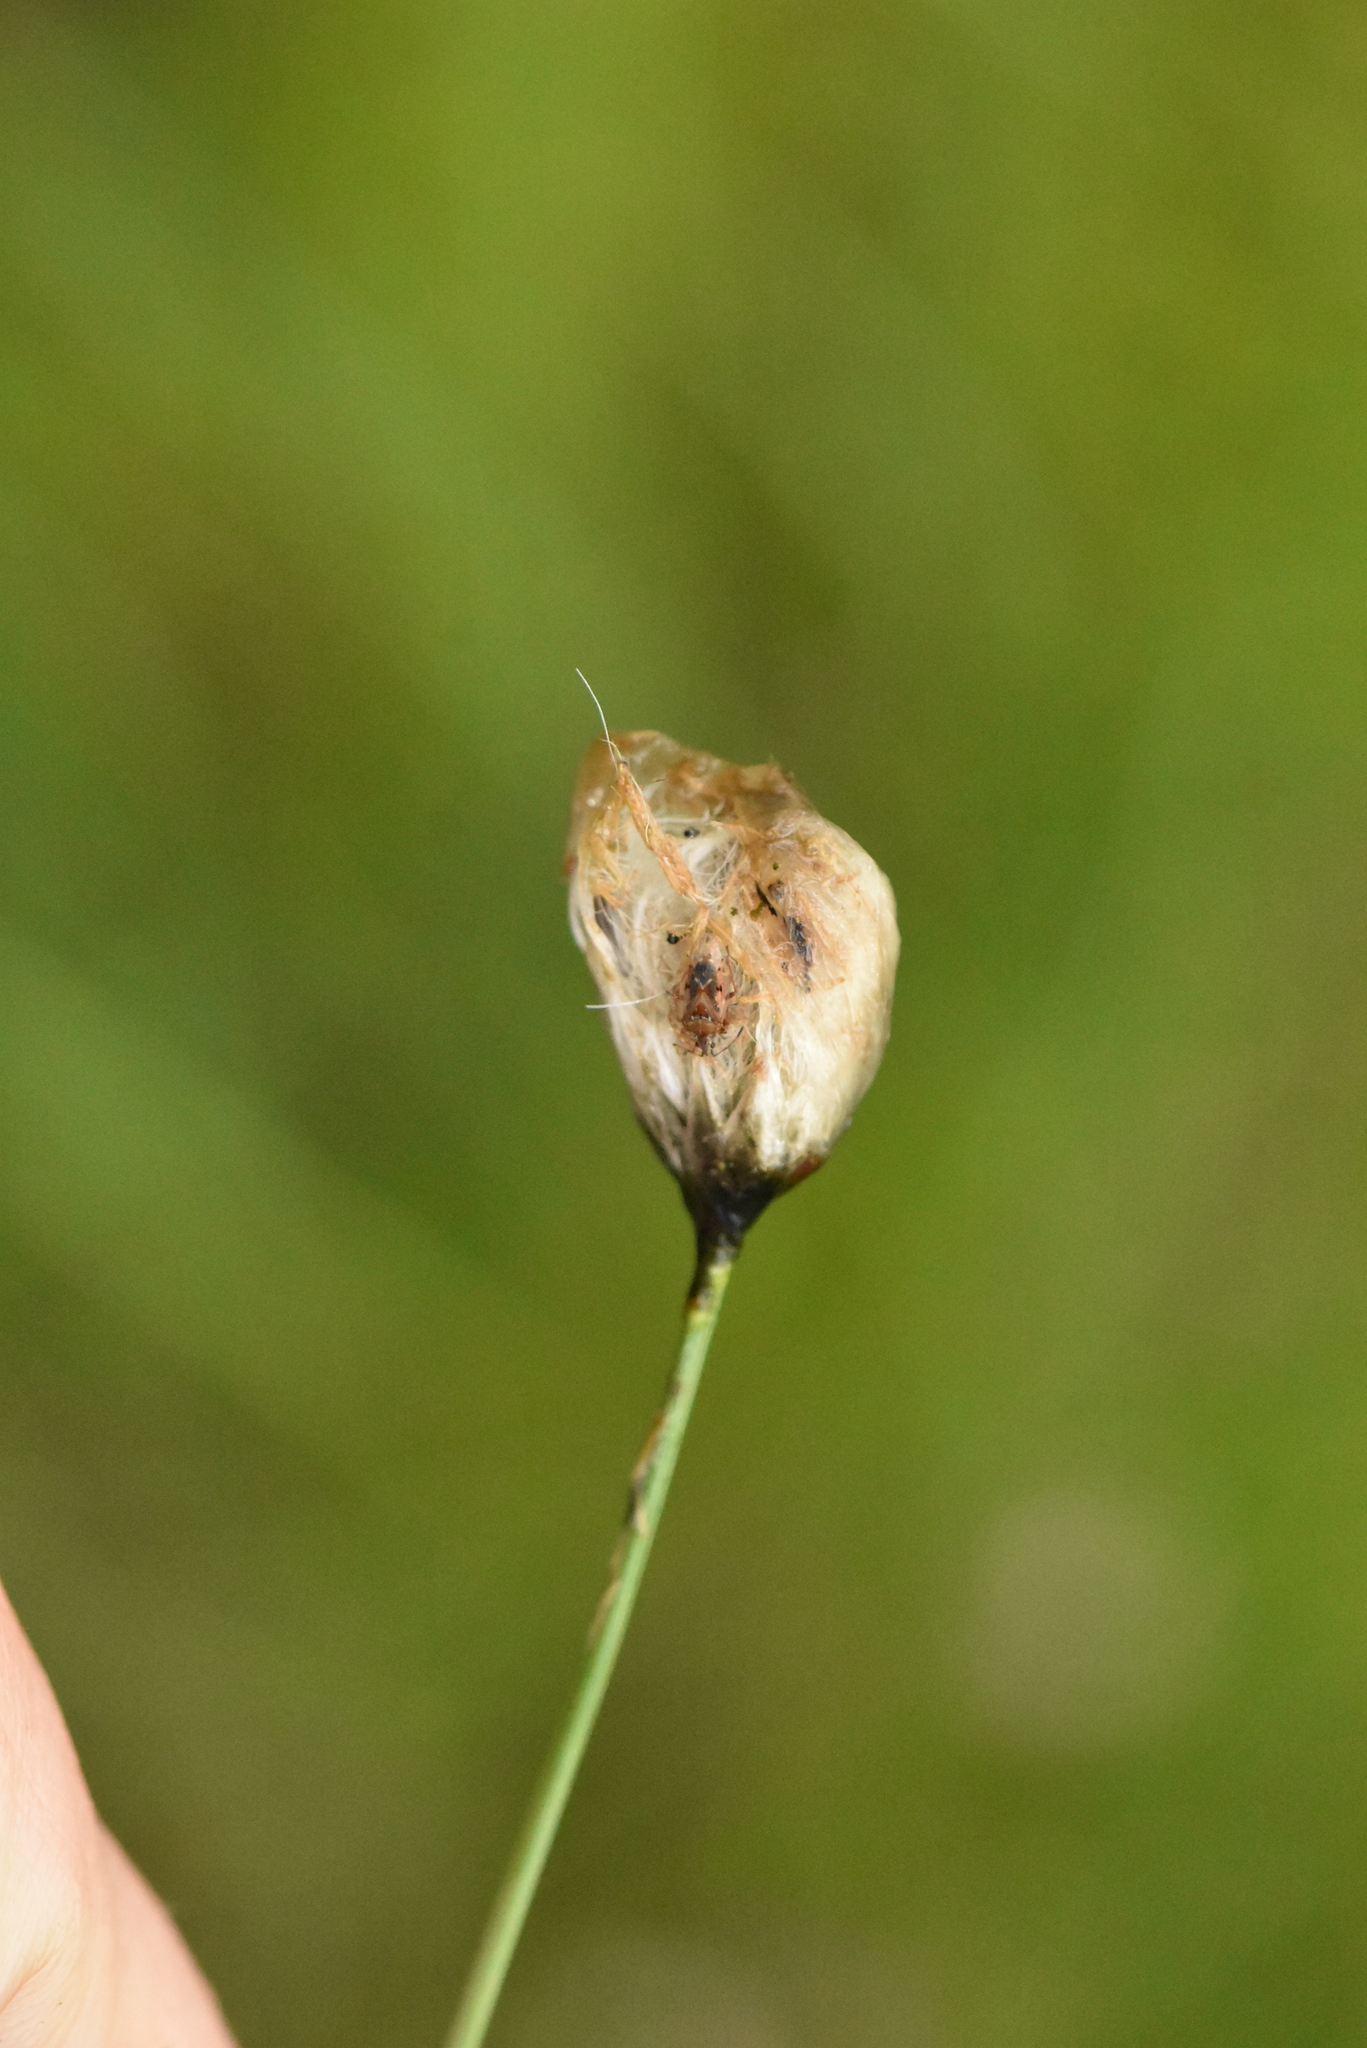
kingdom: Plantae
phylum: Tracheophyta
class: Liliopsida
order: Poales
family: Cyperaceae
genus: Eriophorum
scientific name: Eriophorum vaginatum
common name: Hare's-tail cottongrass
